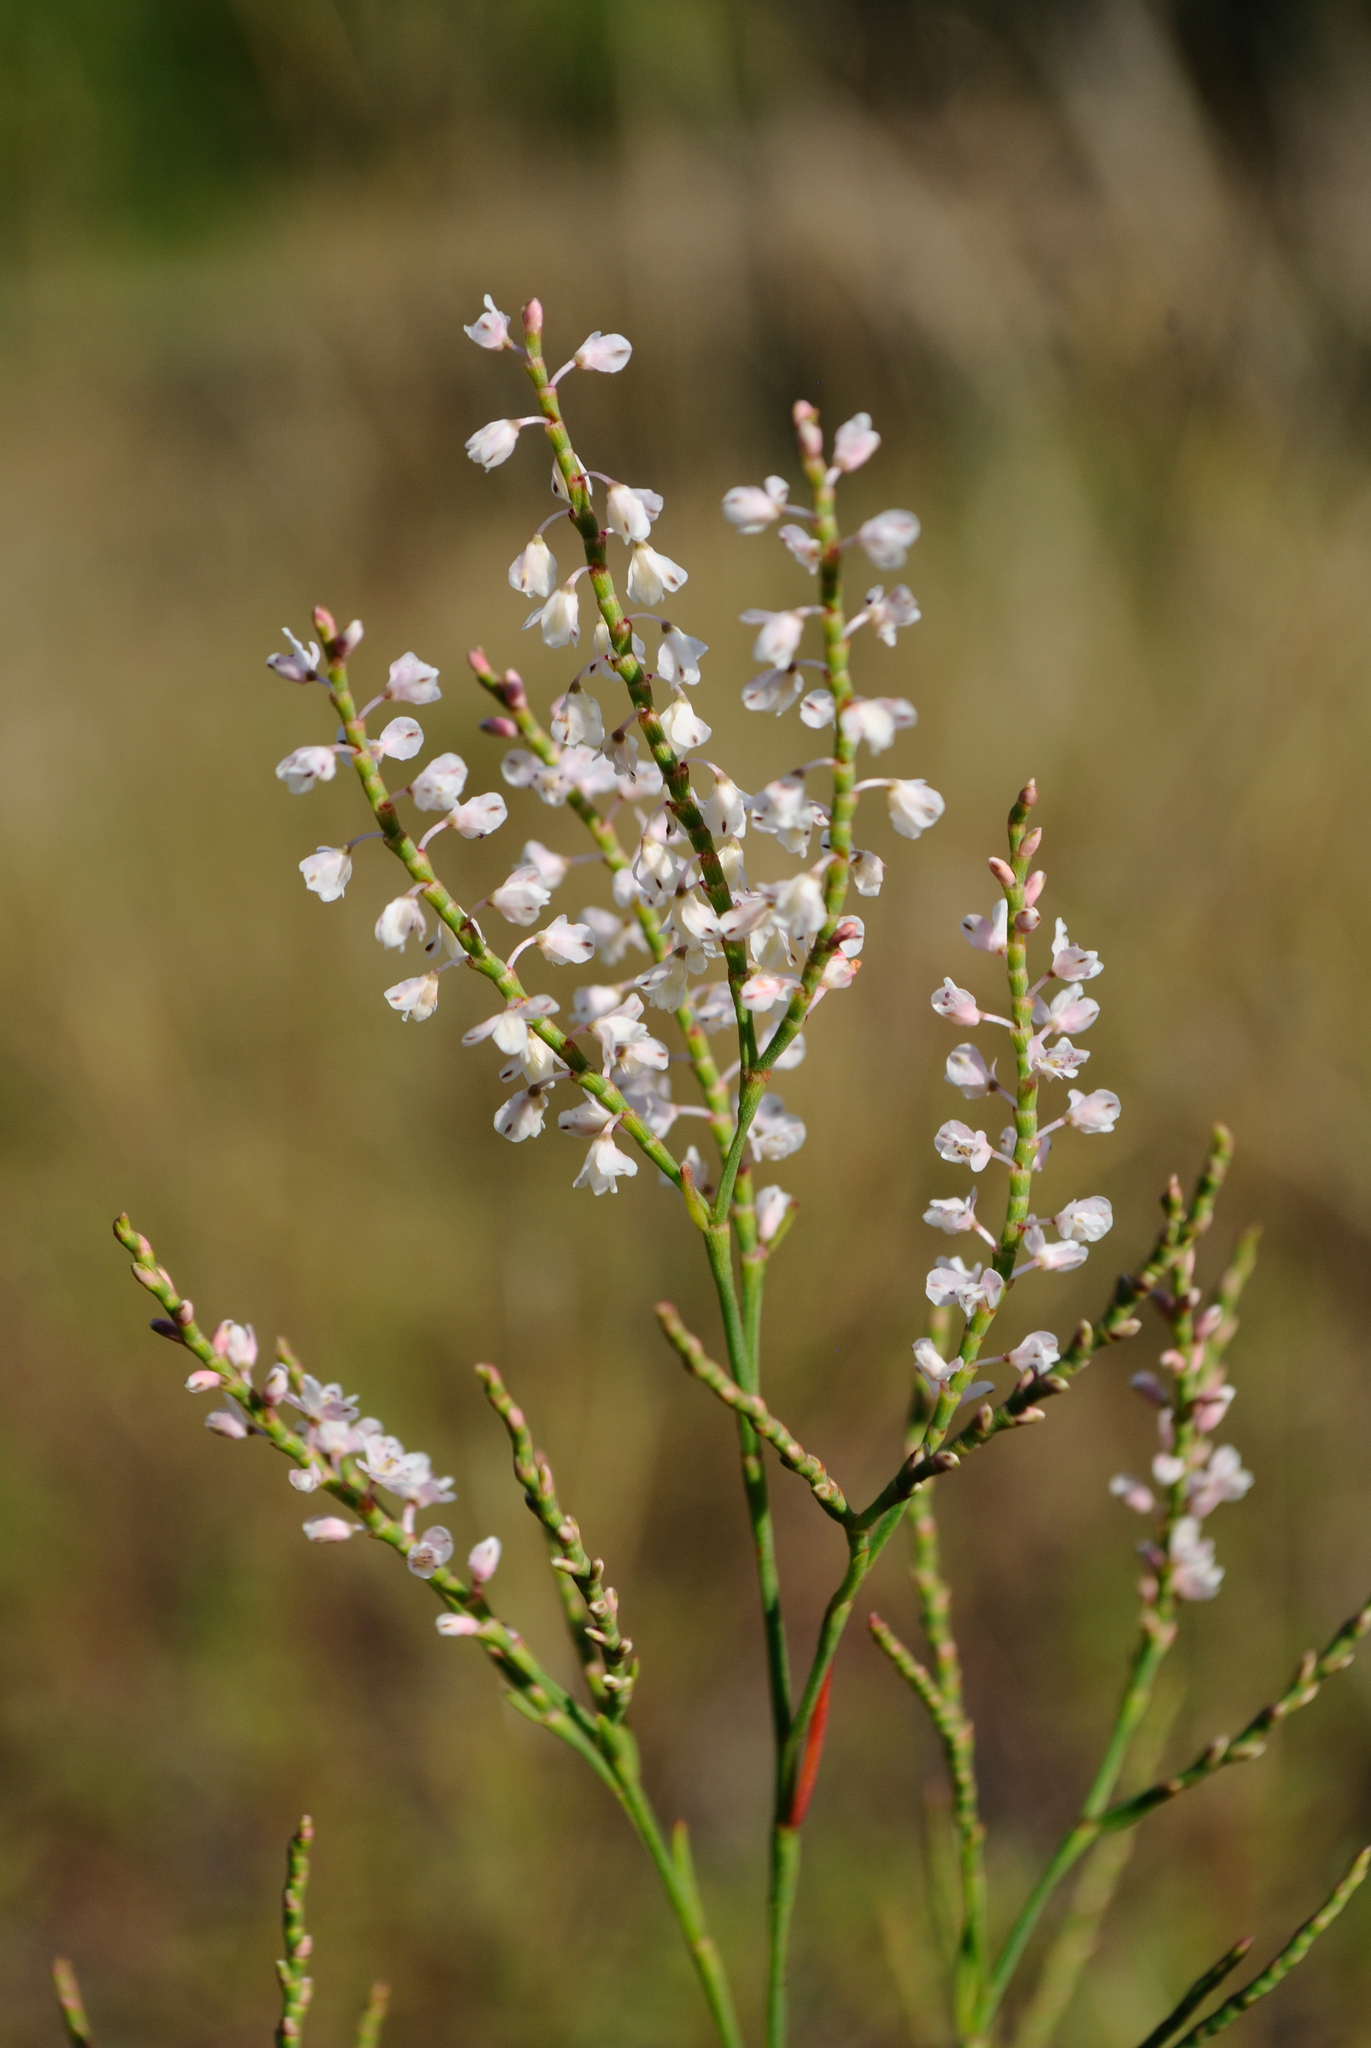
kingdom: Plantae
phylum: Tracheophyta
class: Magnoliopsida
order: Caryophyllales
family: Polygonaceae
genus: Polygonella
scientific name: Polygonella articulata
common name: Coastal jointweed
